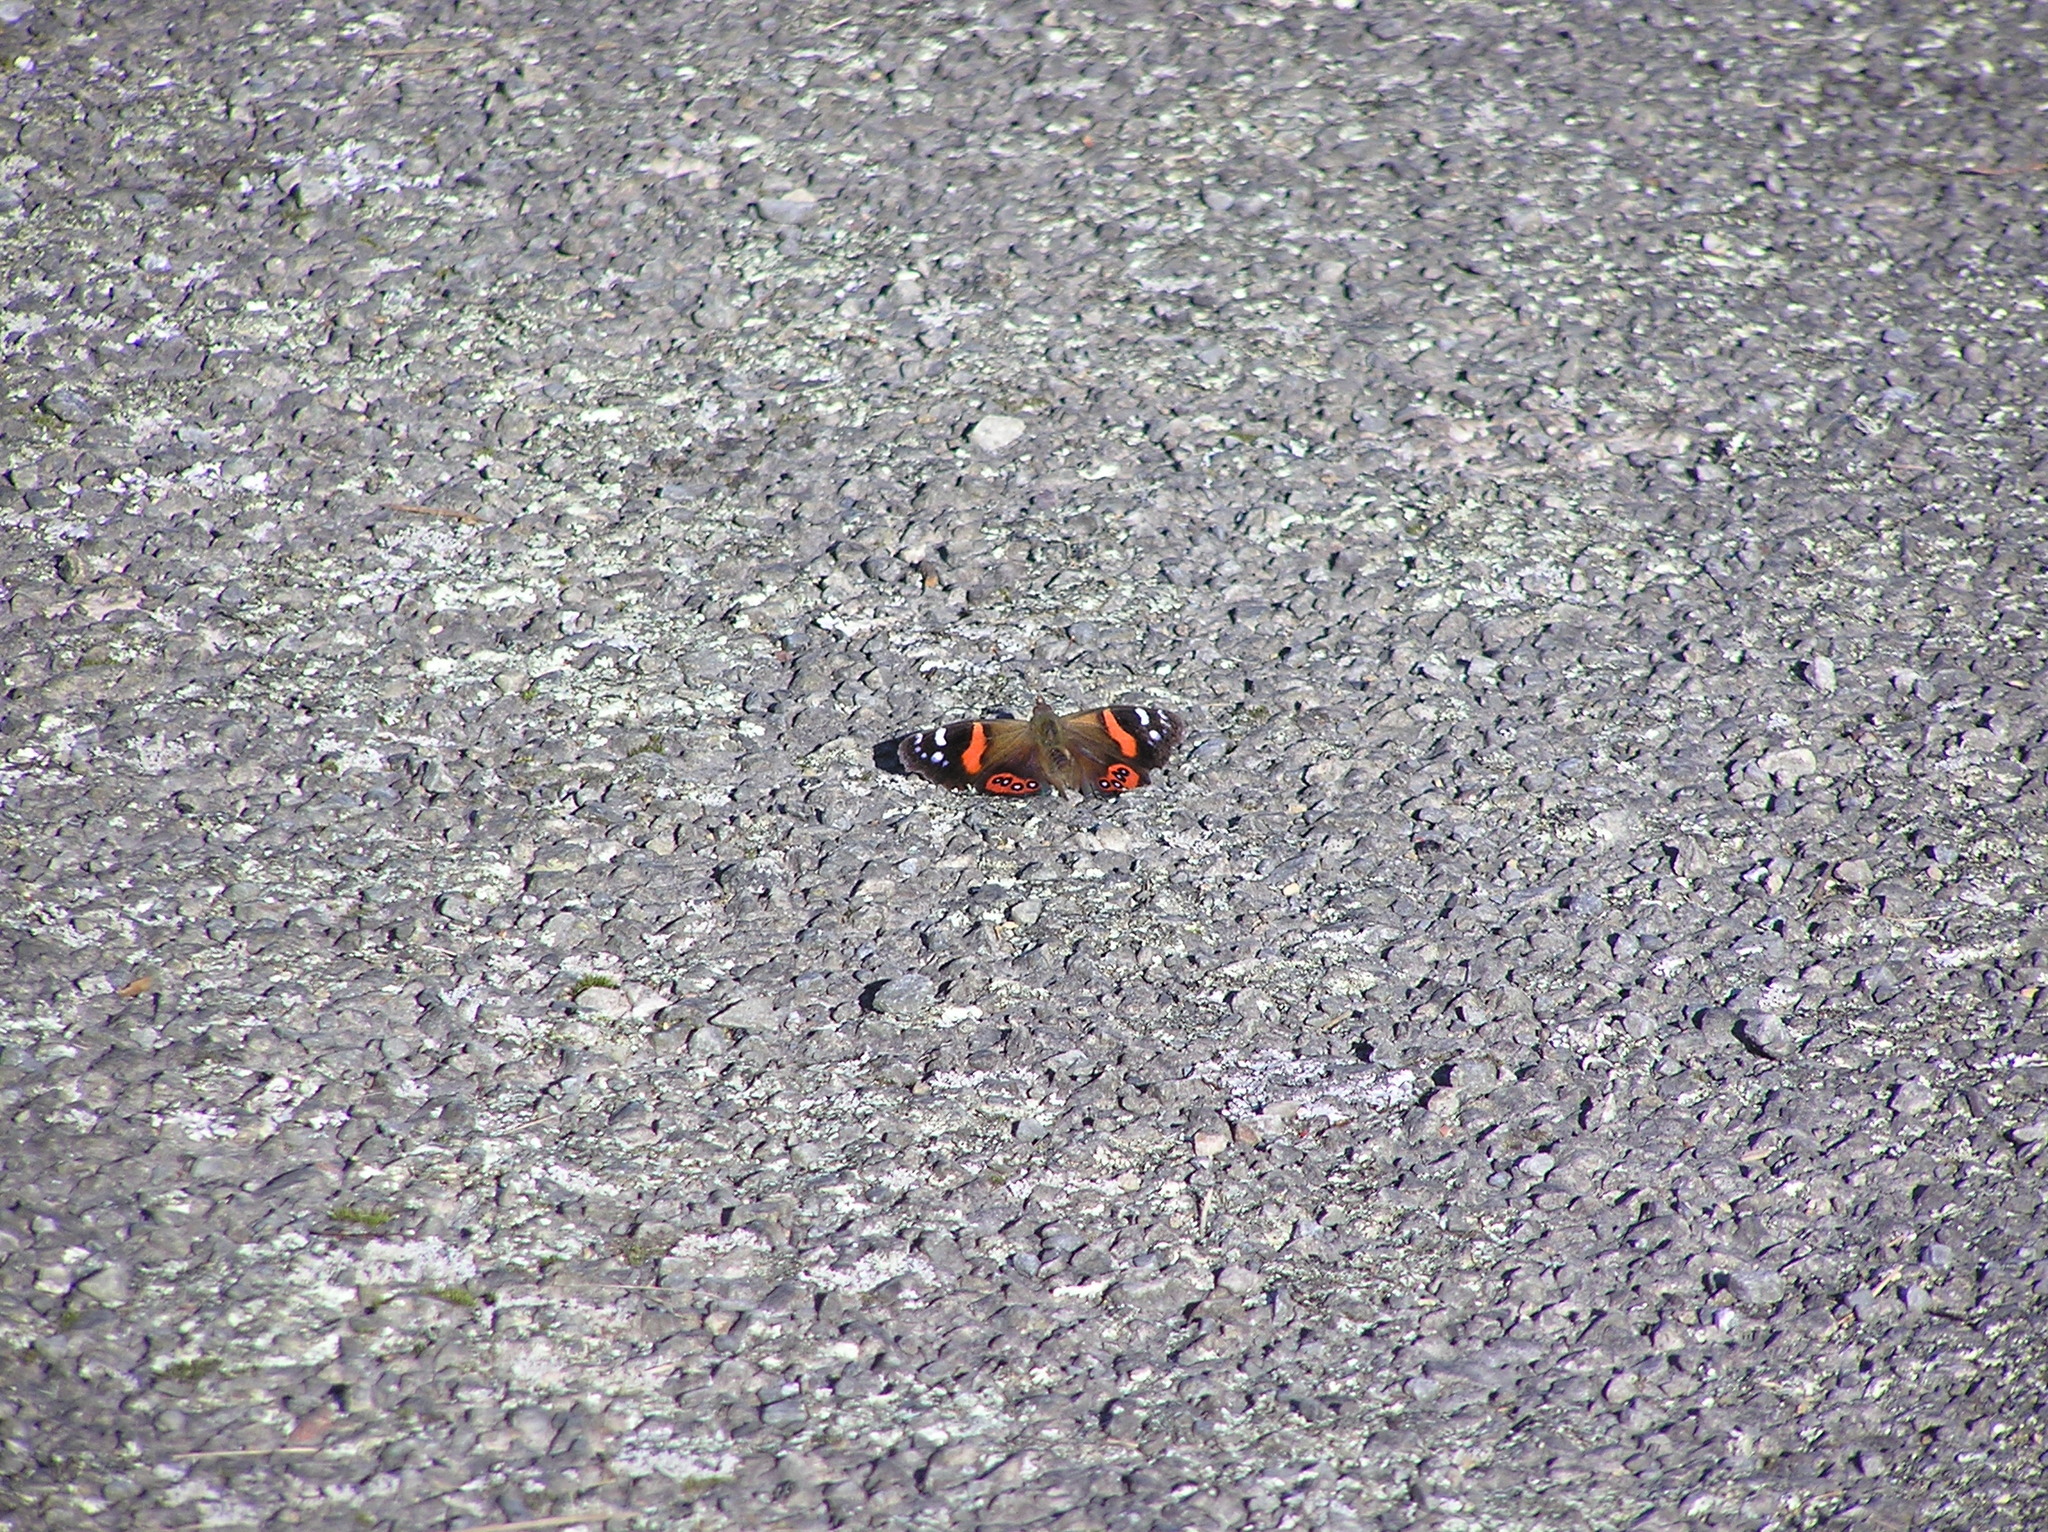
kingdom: Animalia
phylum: Arthropoda
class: Insecta
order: Lepidoptera
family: Nymphalidae
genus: Vanessa
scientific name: Vanessa gonerilla
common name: New zealand red admiral
